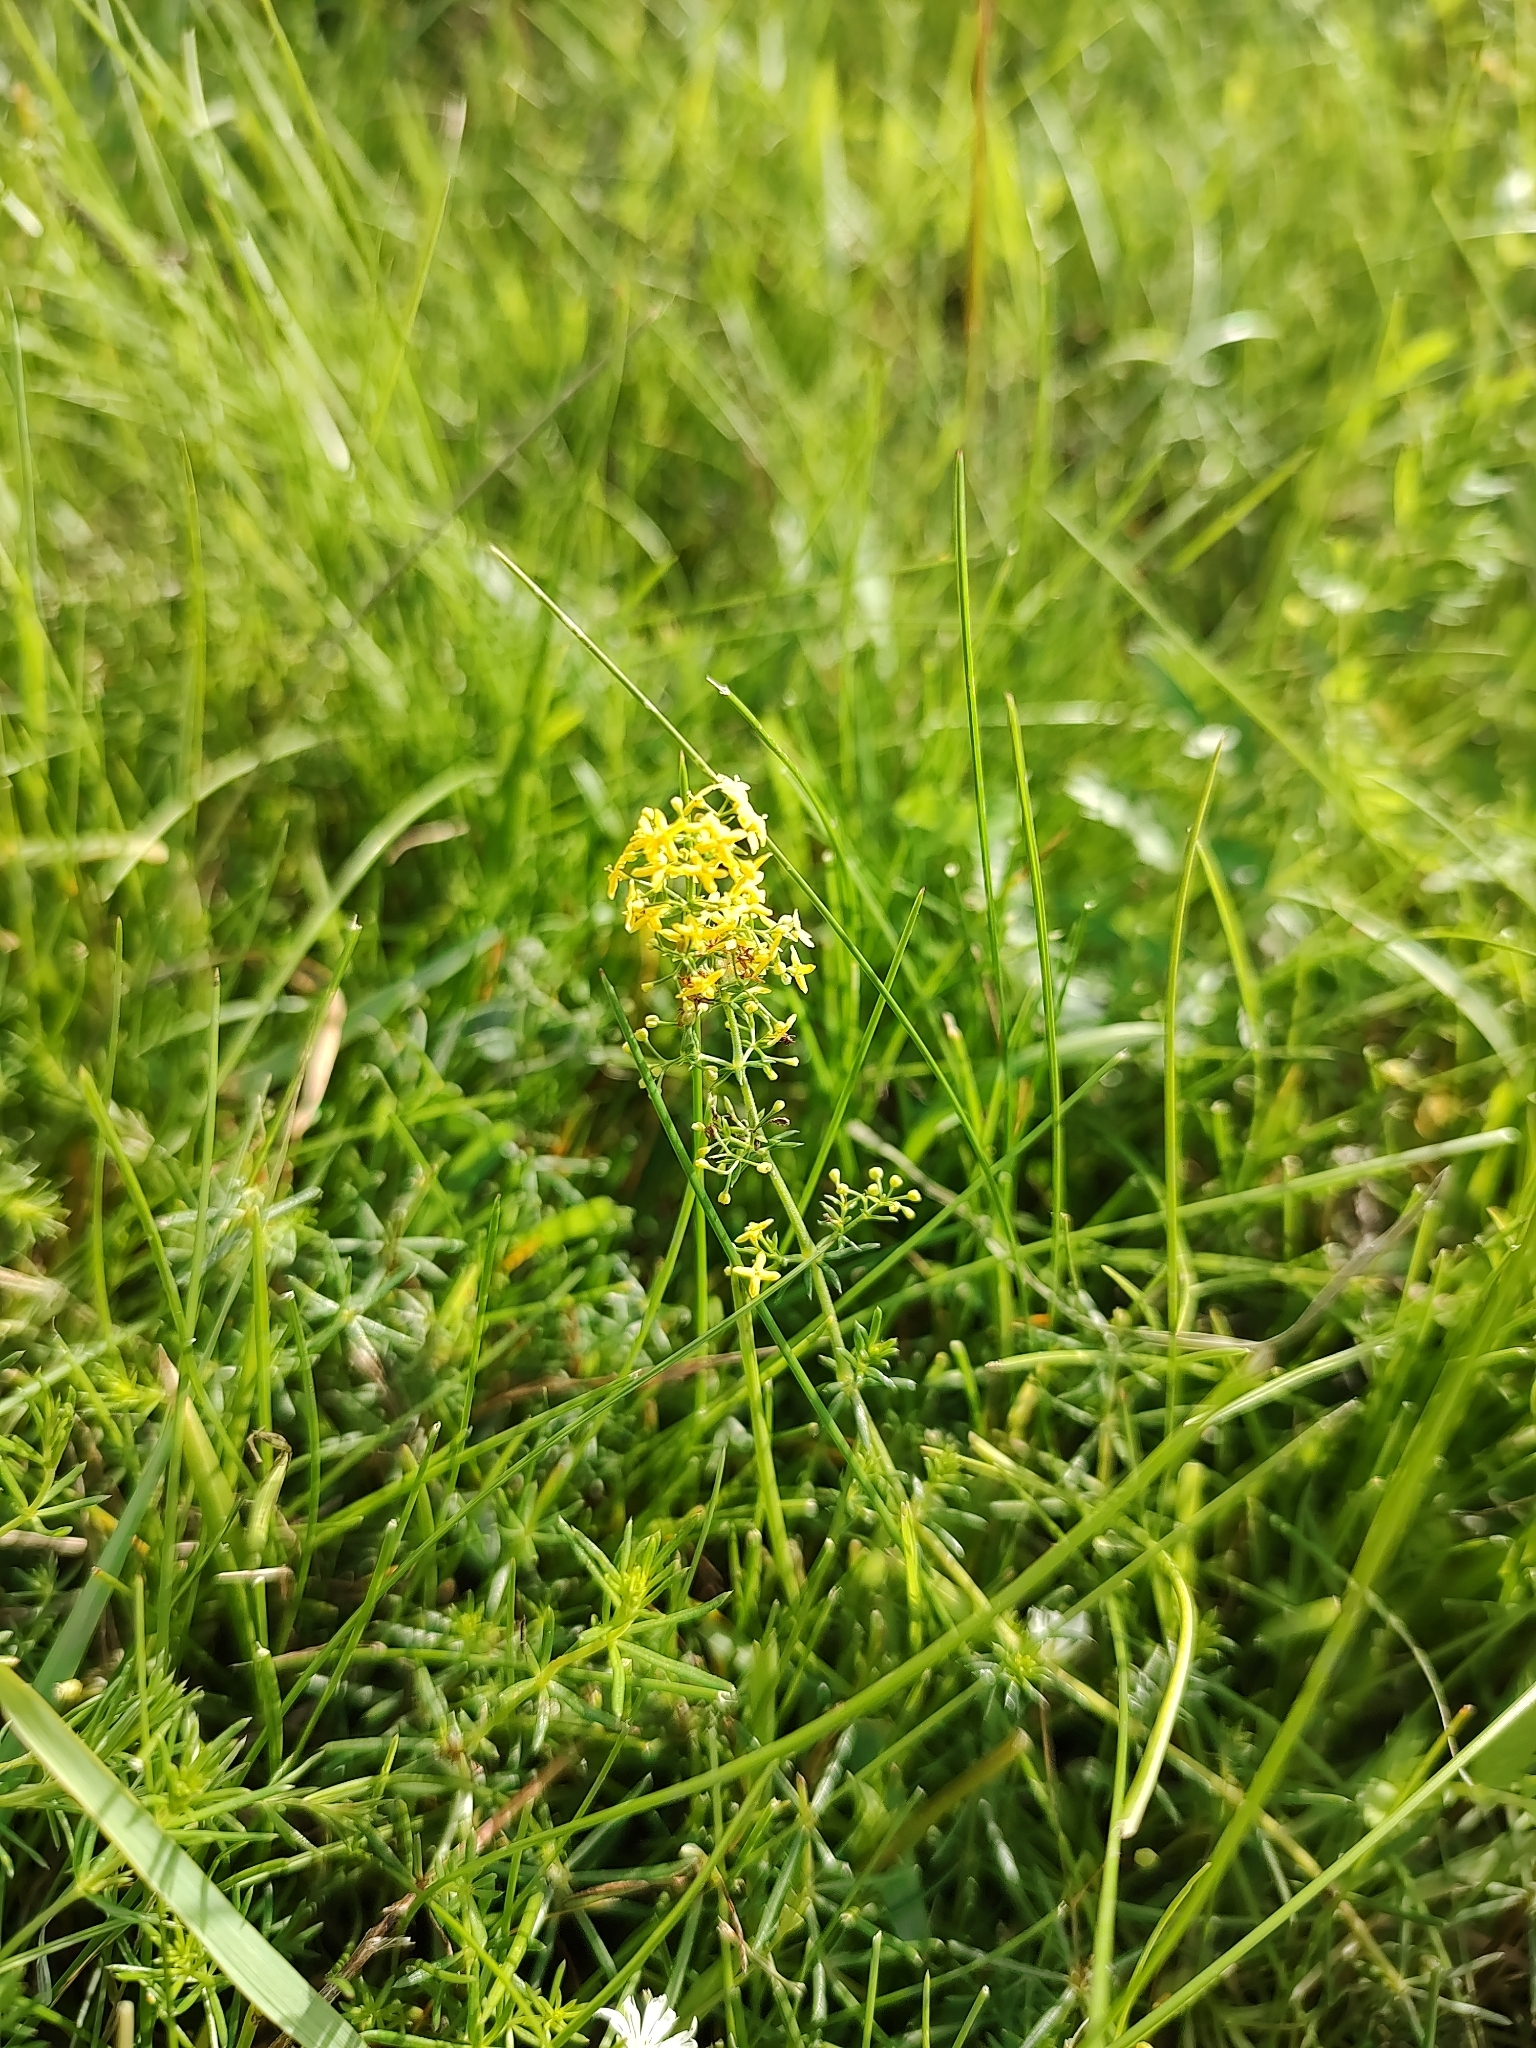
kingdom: Plantae
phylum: Tracheophyta
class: Magnoliopsida
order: Gentianales
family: Rubiaceae
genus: Galium
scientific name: Galium verum
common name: Lady's bedstraw
